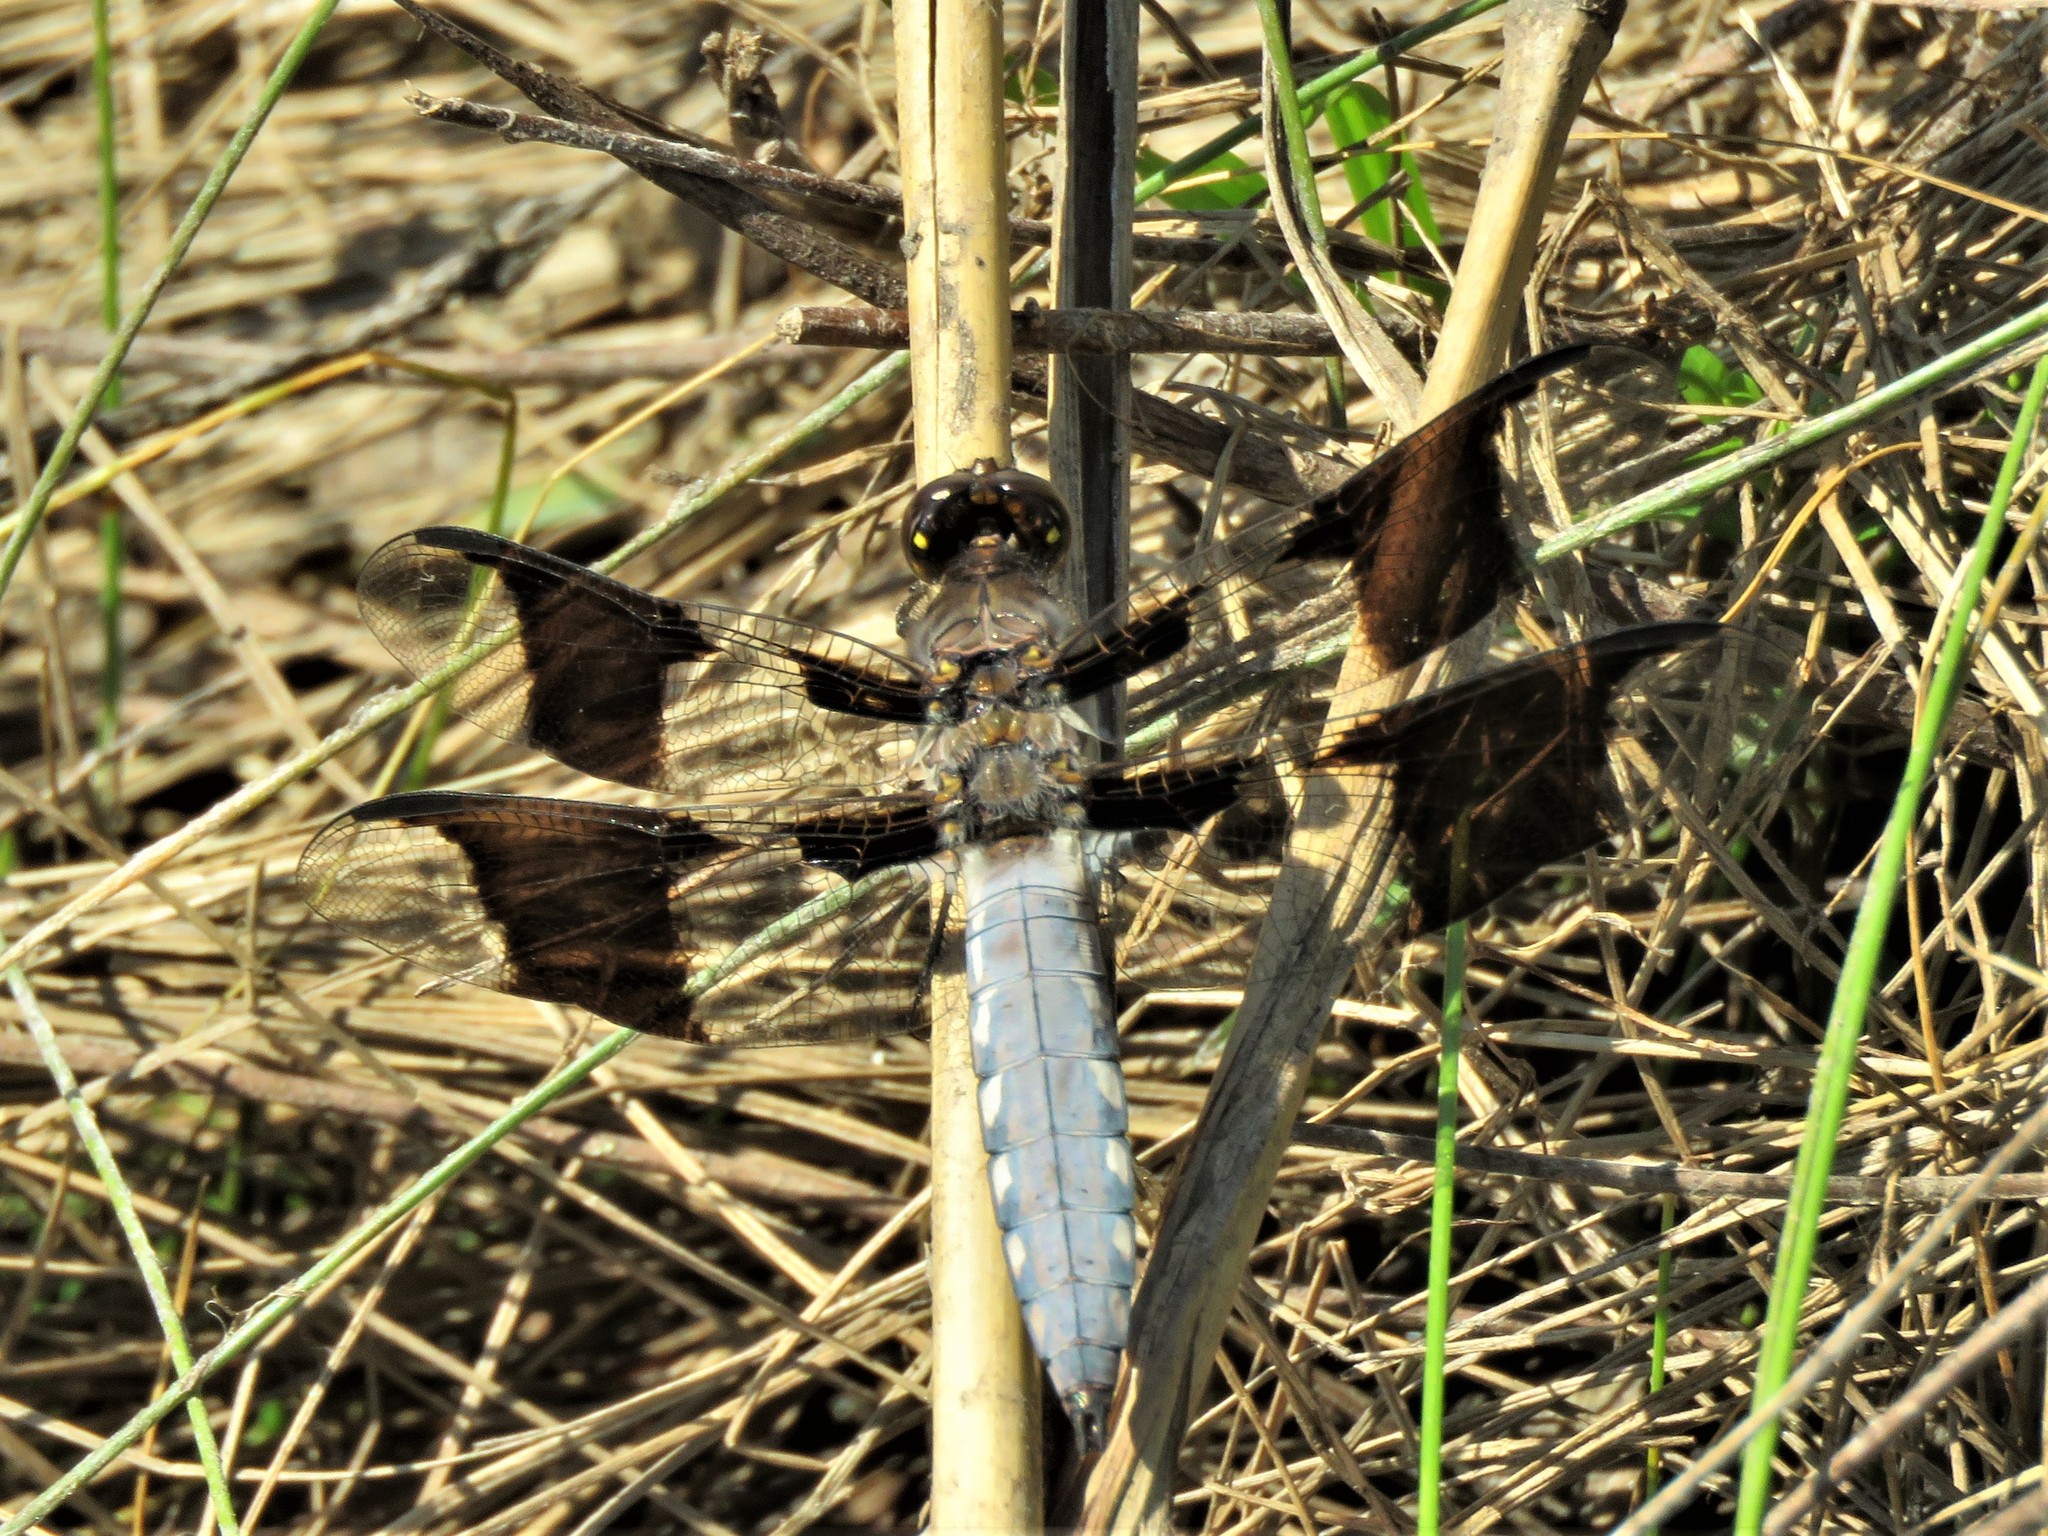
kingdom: Animalia
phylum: Arthropoda
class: Insecta
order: Odonata
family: Libellulidae
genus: Plathemis
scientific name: Plathemis lydia
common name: Common whitetail
